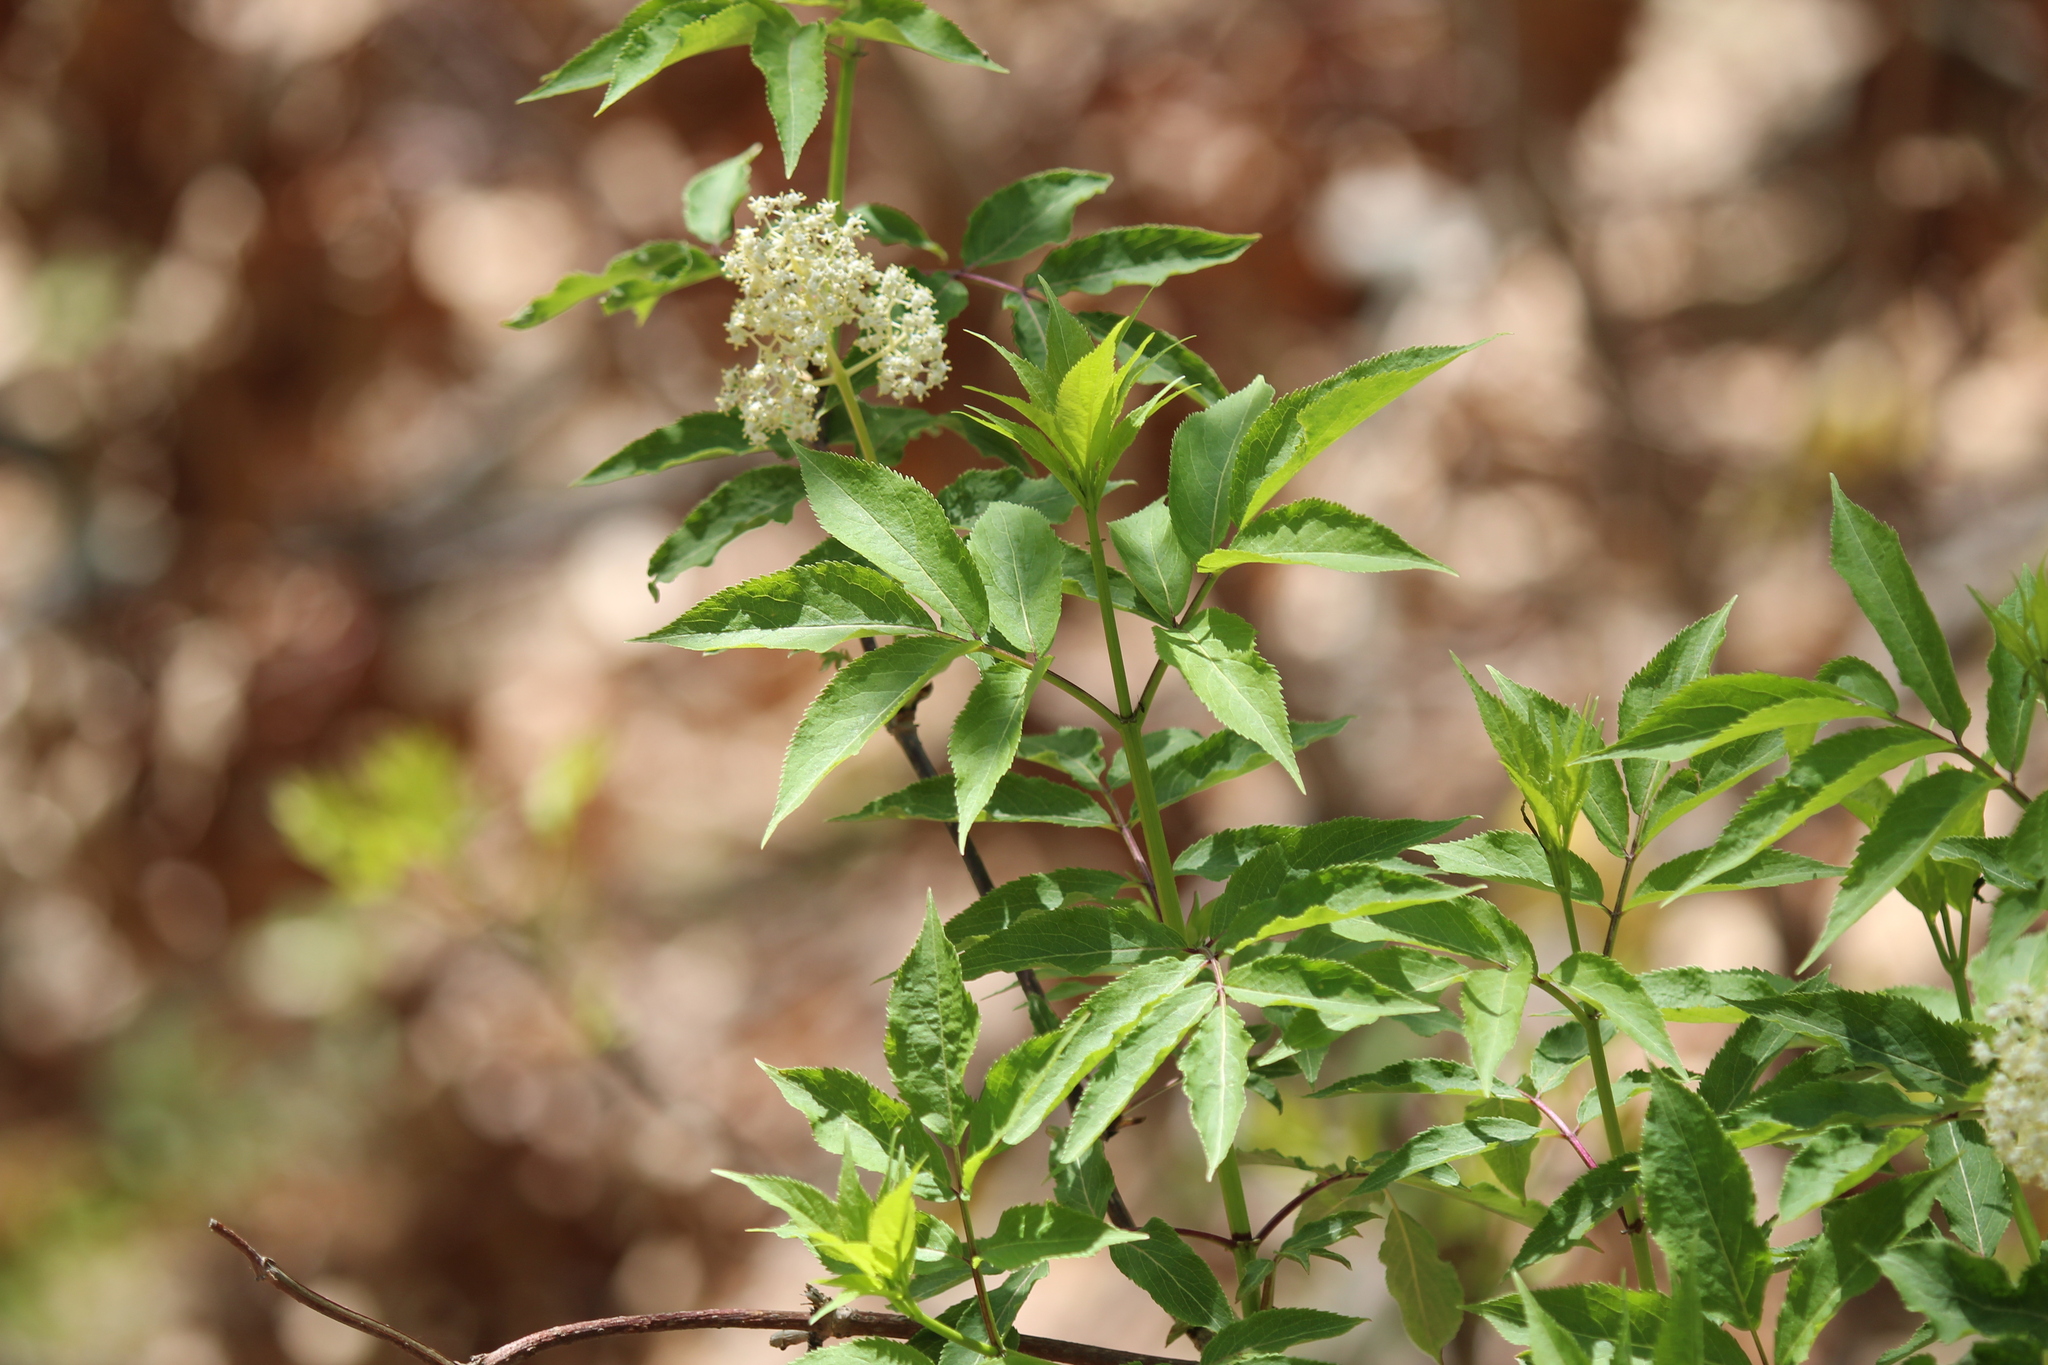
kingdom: Plantae
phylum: Tracheophyta
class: Magnoliopsida
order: Dipsacales
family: Viburnaceae
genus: Sambucus
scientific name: Sambucus racemosa
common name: Red-berried elder
